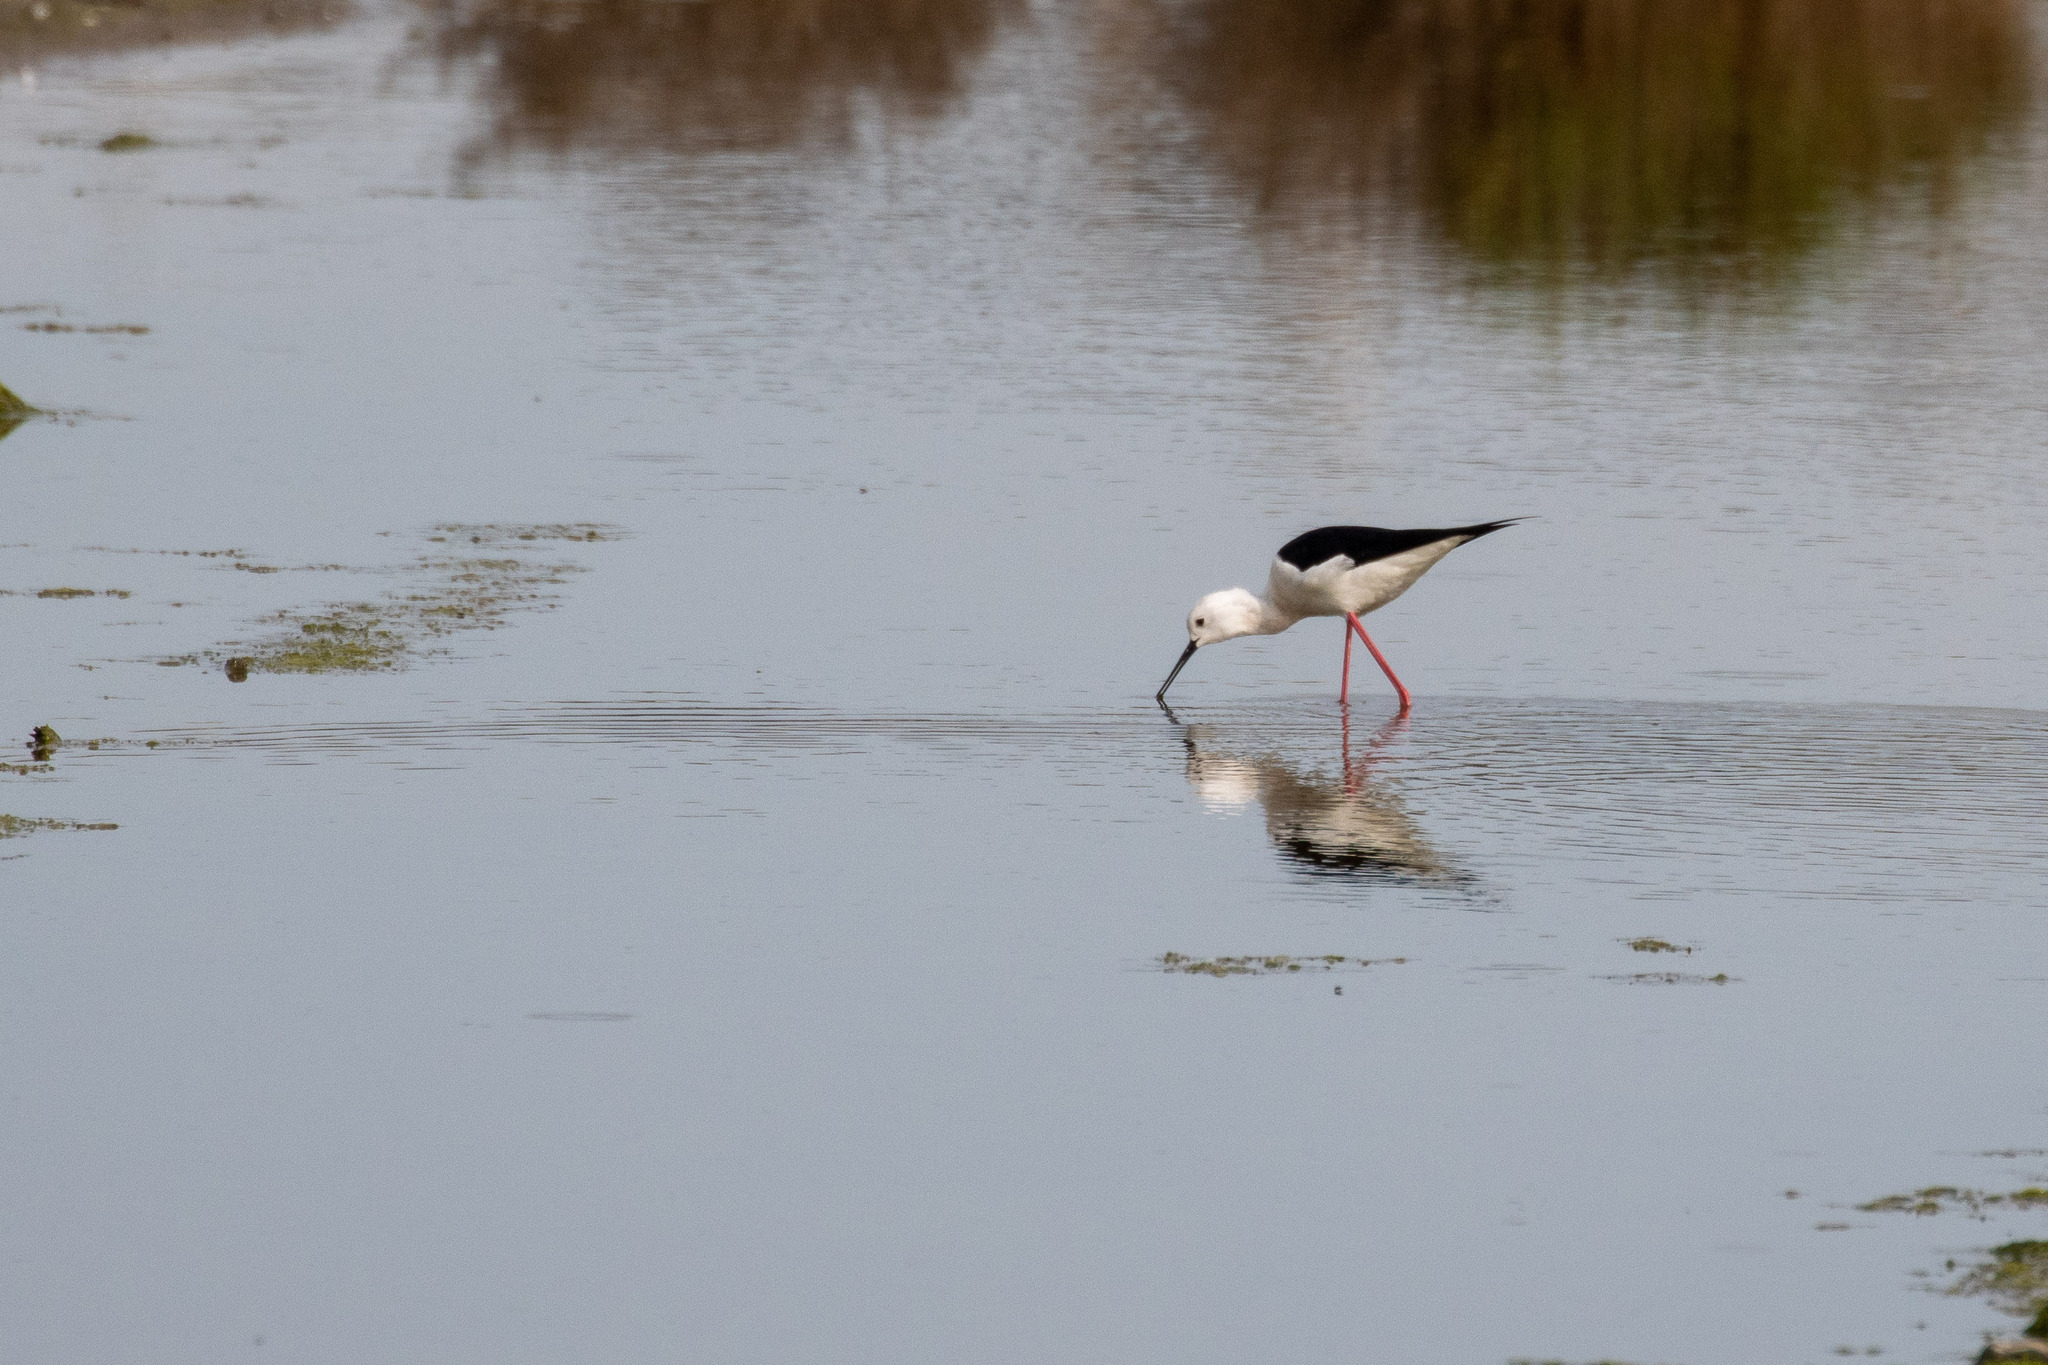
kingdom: Animalia
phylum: Chordata
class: Aves
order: Charadriiformes
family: Recurvirostridae
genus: Himantopus
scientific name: Himantopus himantopus
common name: Black-winged stilt
